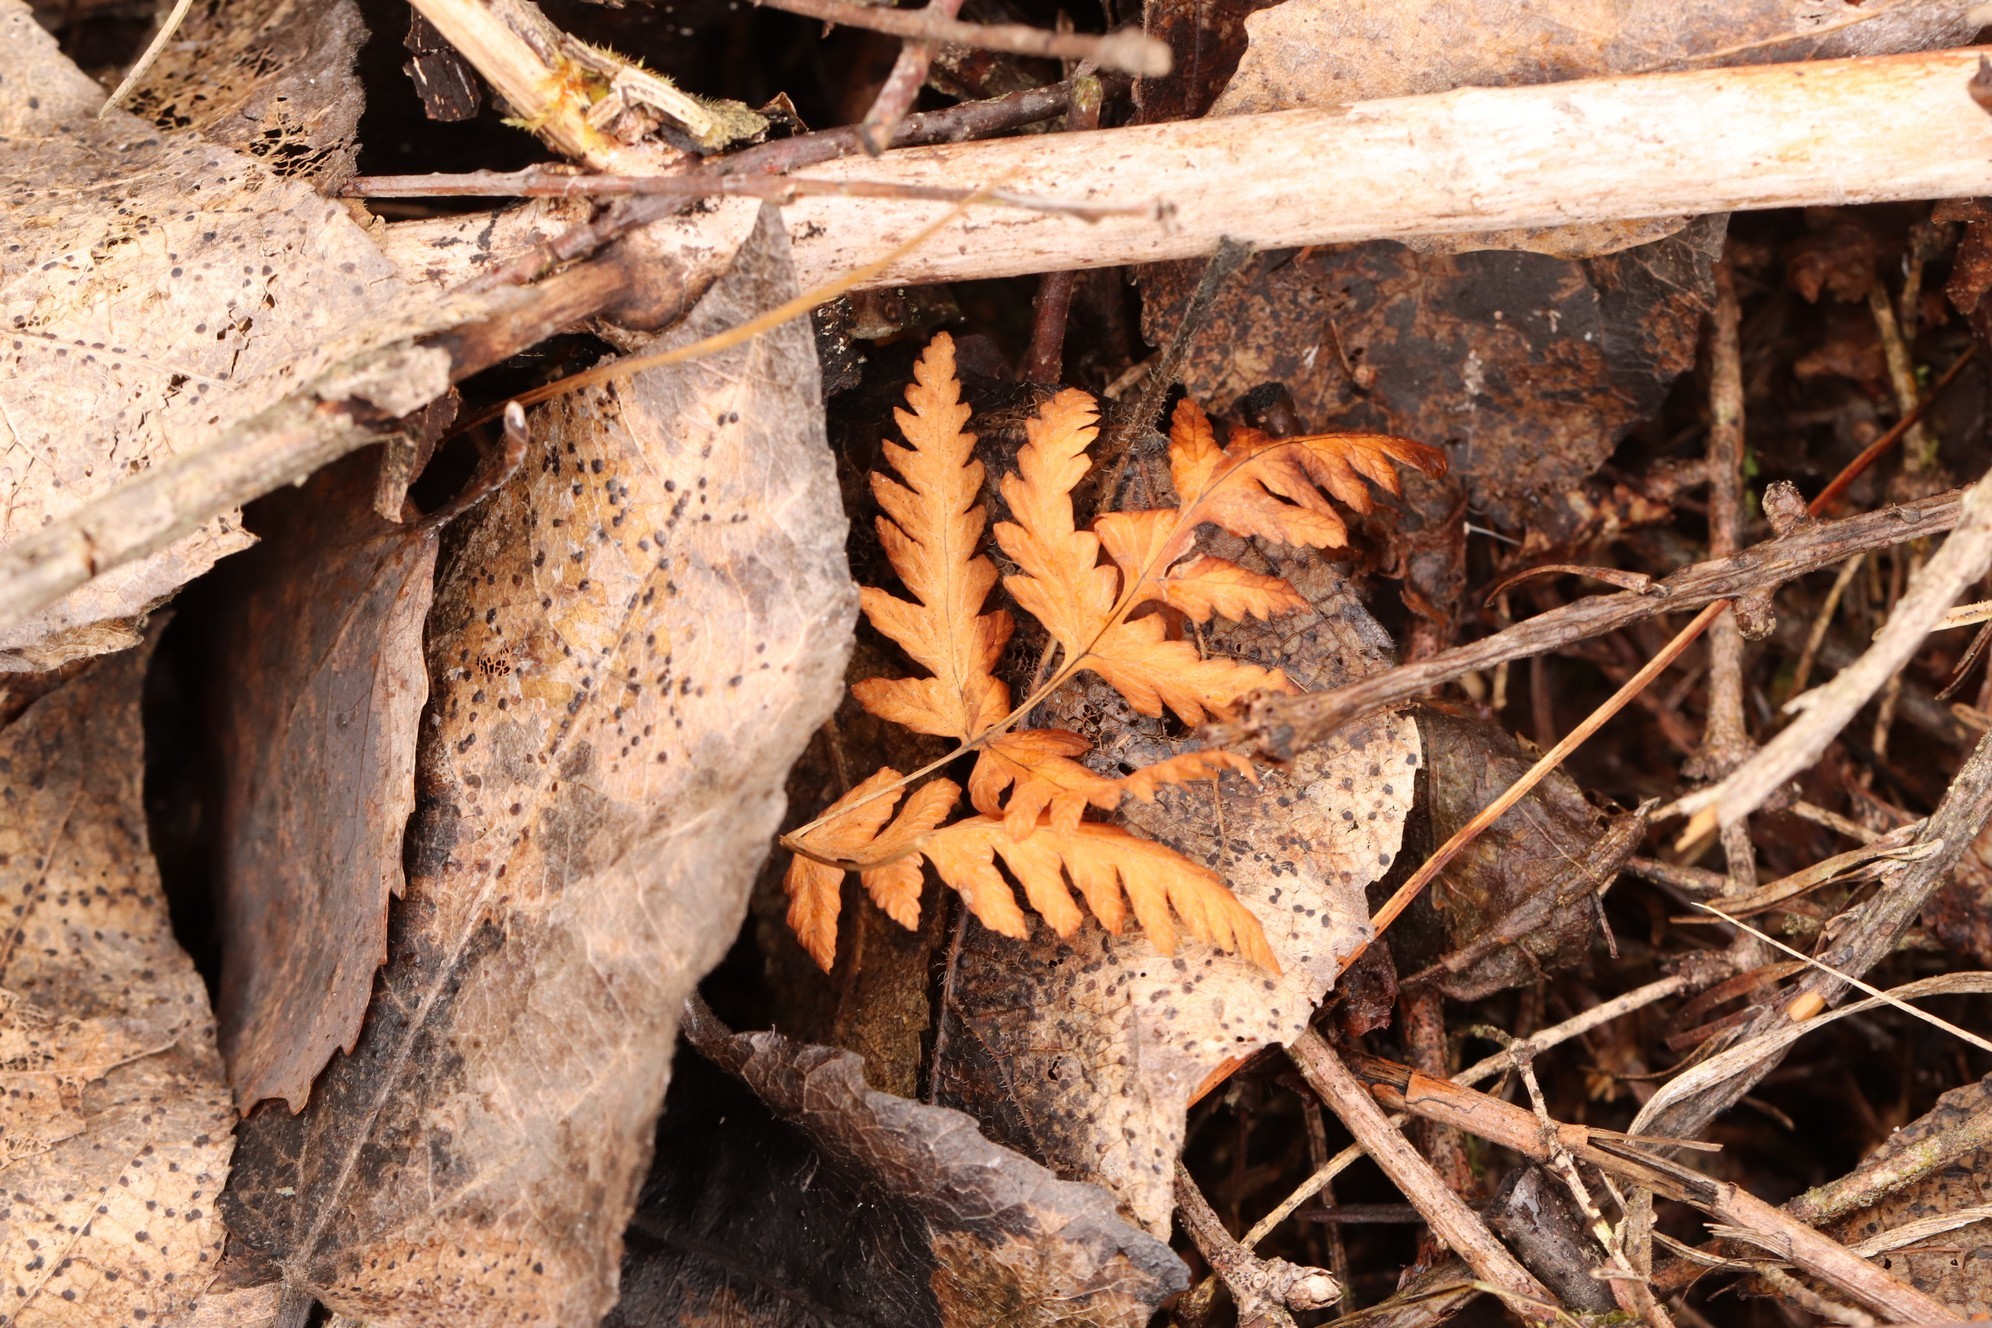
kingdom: Plantae
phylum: Tracheophyta
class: Polypodiopsida
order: Polypodiales
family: Cystopteridaceae
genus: Gymnocarpium
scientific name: Gymnocarpium dryopteris
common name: Oak fern
